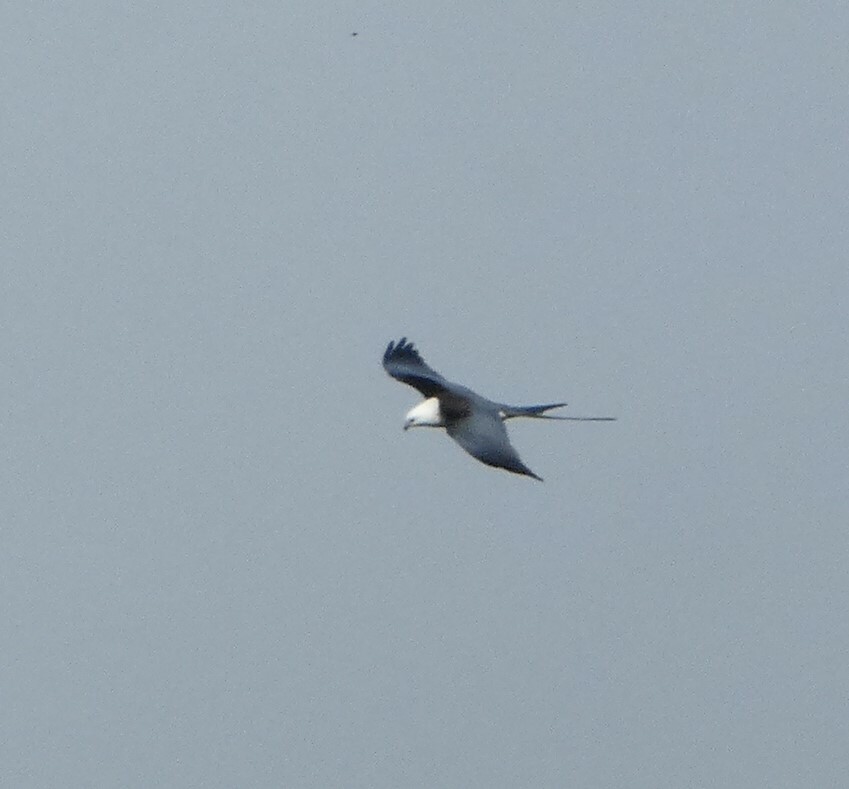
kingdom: Animalia
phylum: Chordata
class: Aves
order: Accipitriformes
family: Accipitridae
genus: Elanoides
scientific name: Elanoides forficatus
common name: Swallow-tailed kite
